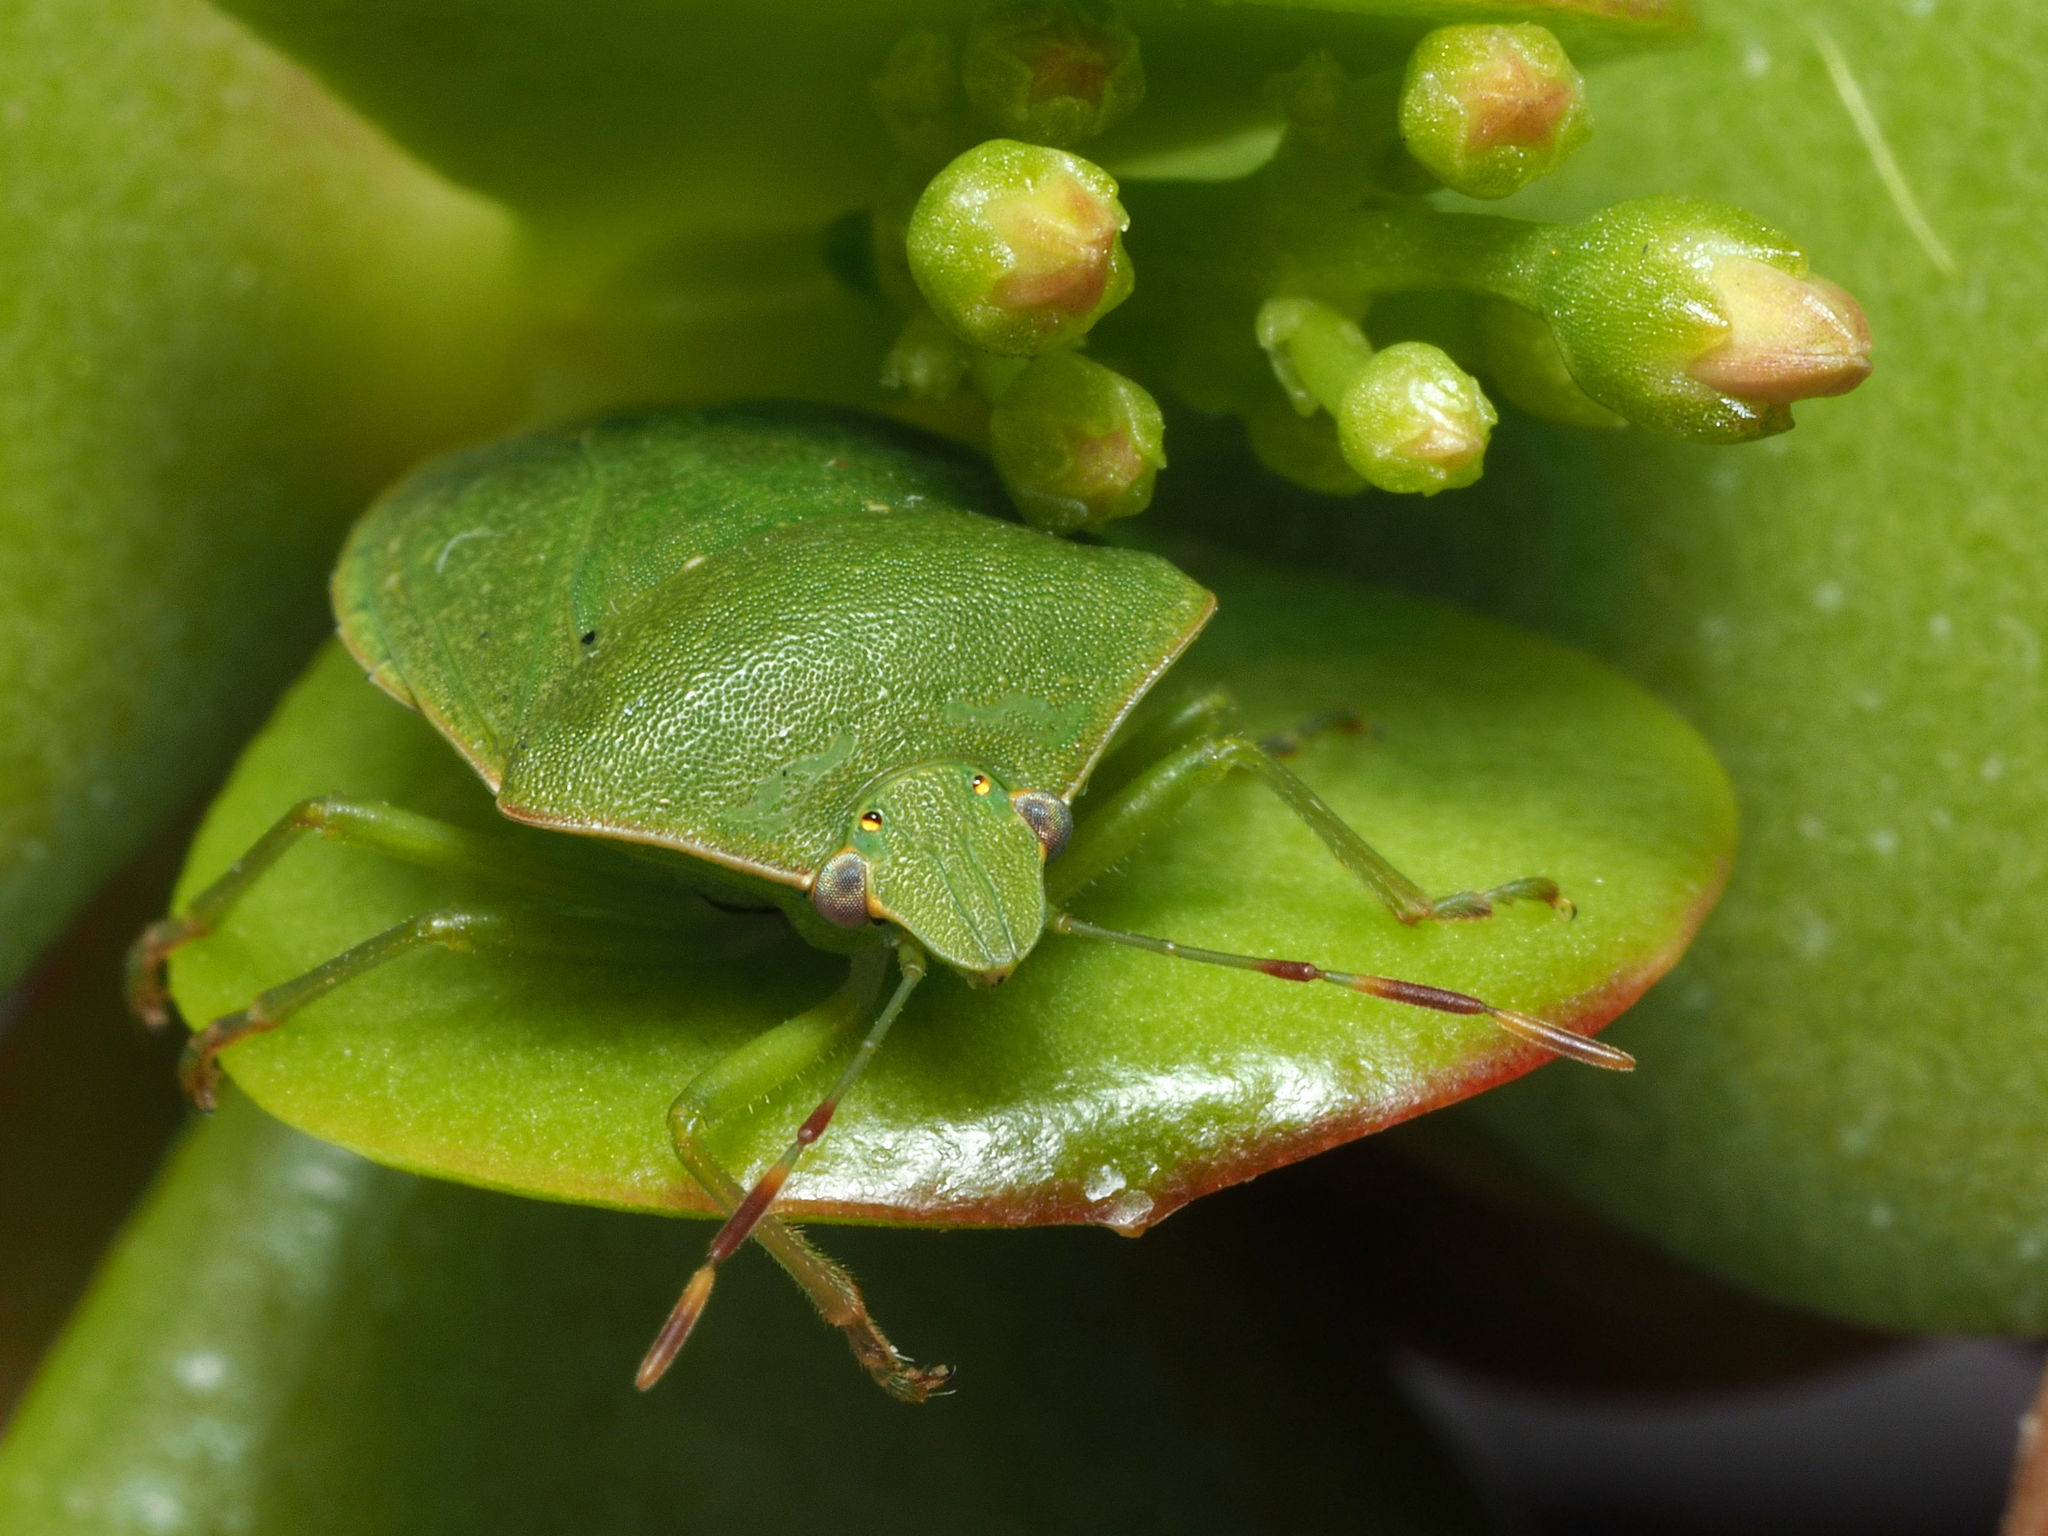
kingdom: Animalia
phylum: Arthropoda
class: Insecta
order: Hemiptera
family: Pentatomidae
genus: Nezara
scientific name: Nezara viridula
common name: Southern green stink bug
